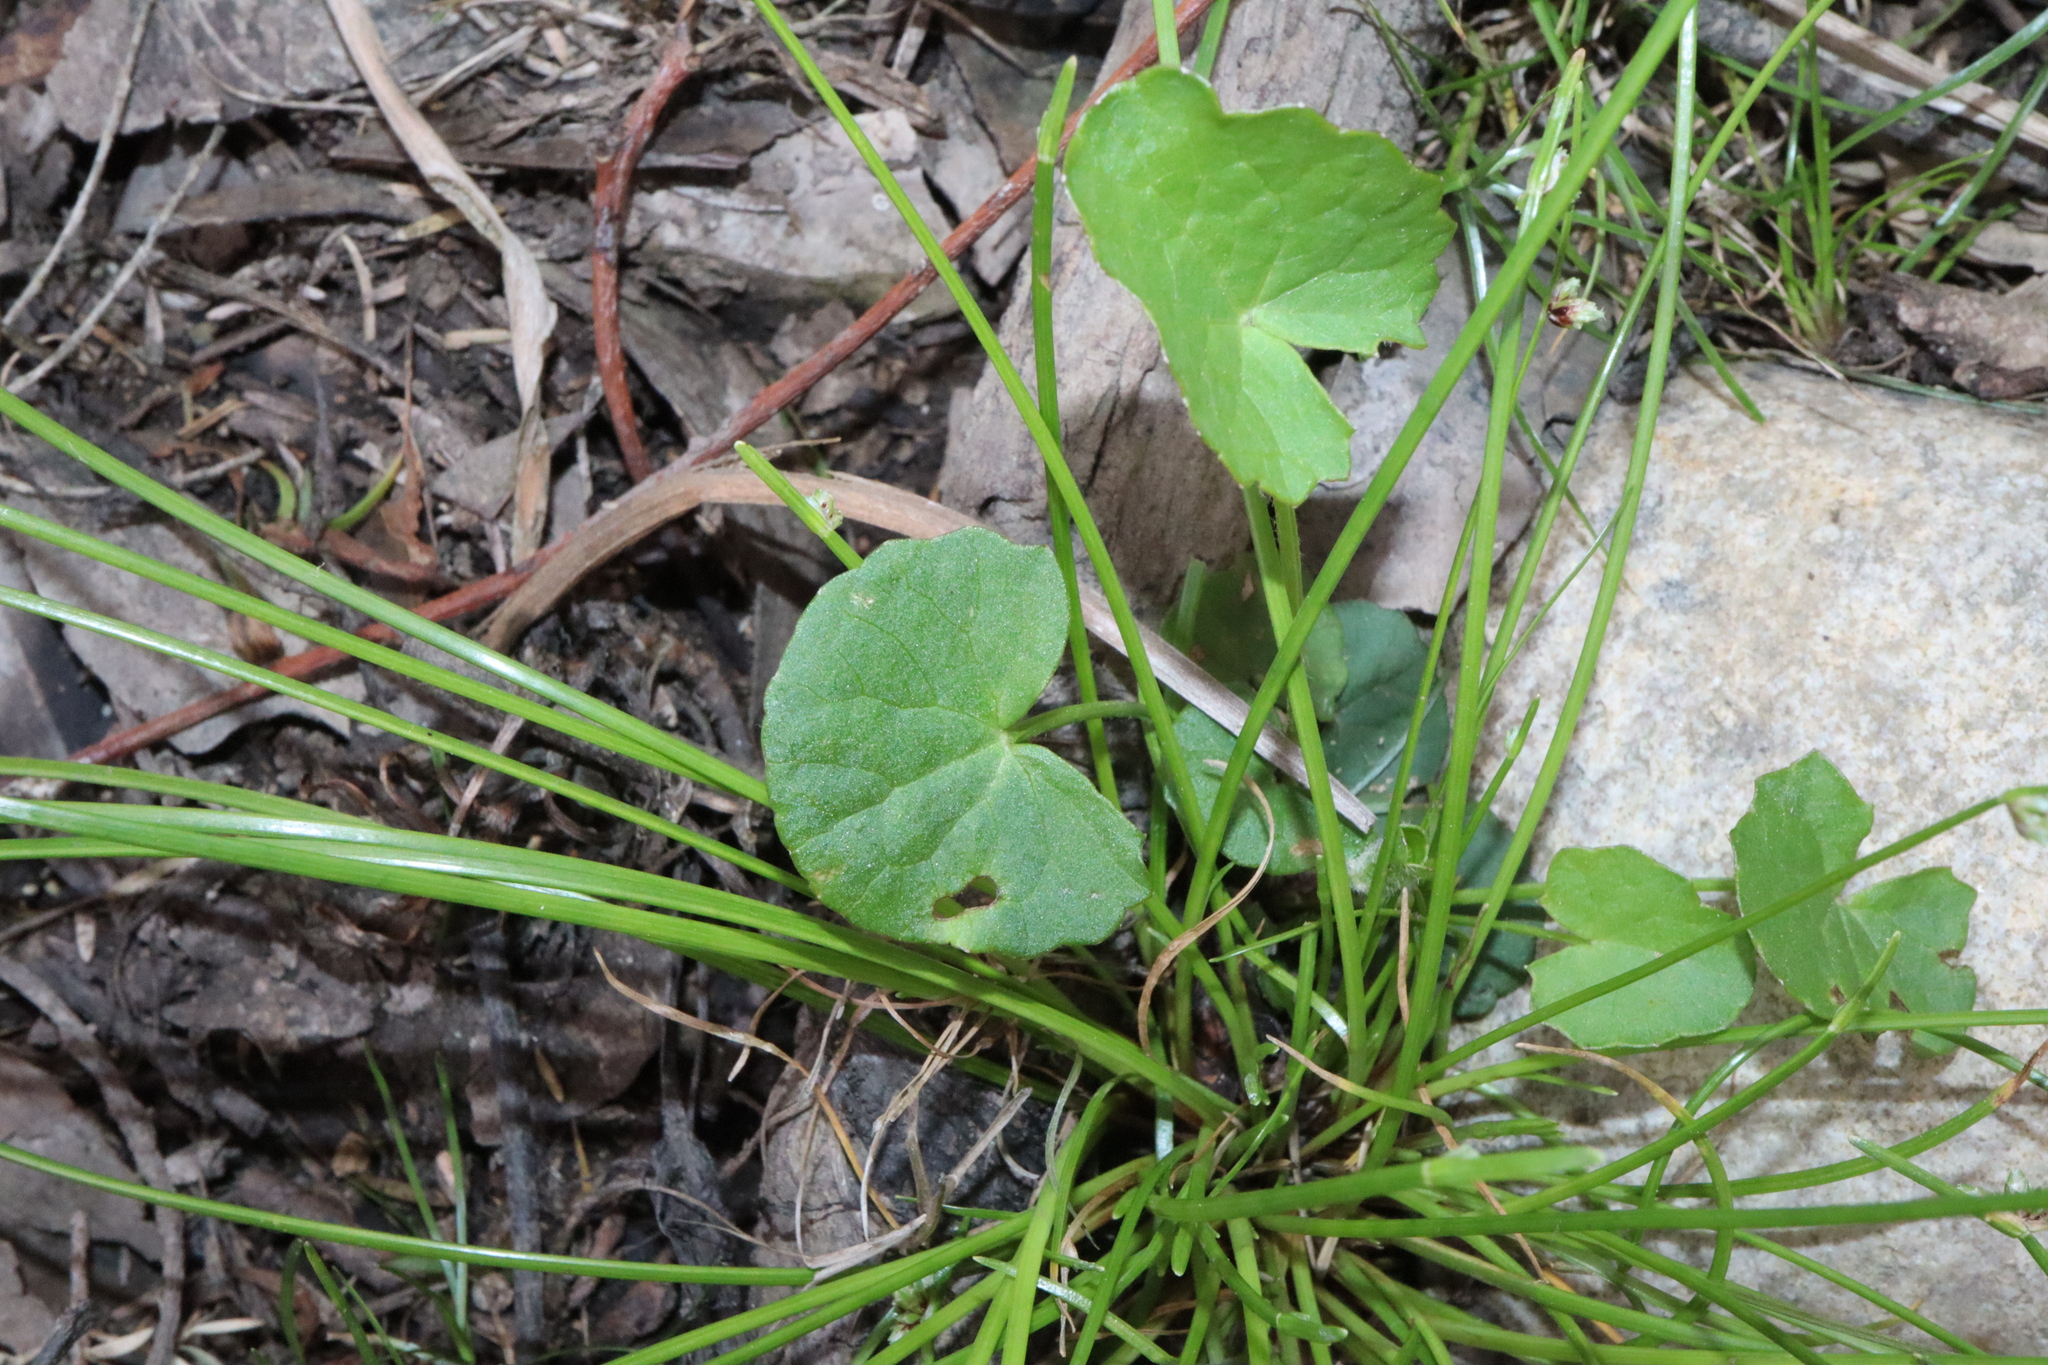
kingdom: Plantae
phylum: Tracheophyta
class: Magnoliopsida
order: Apiales
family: Apiaceae
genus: Centella
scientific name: Centella asiatica
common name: Spadeleaf
